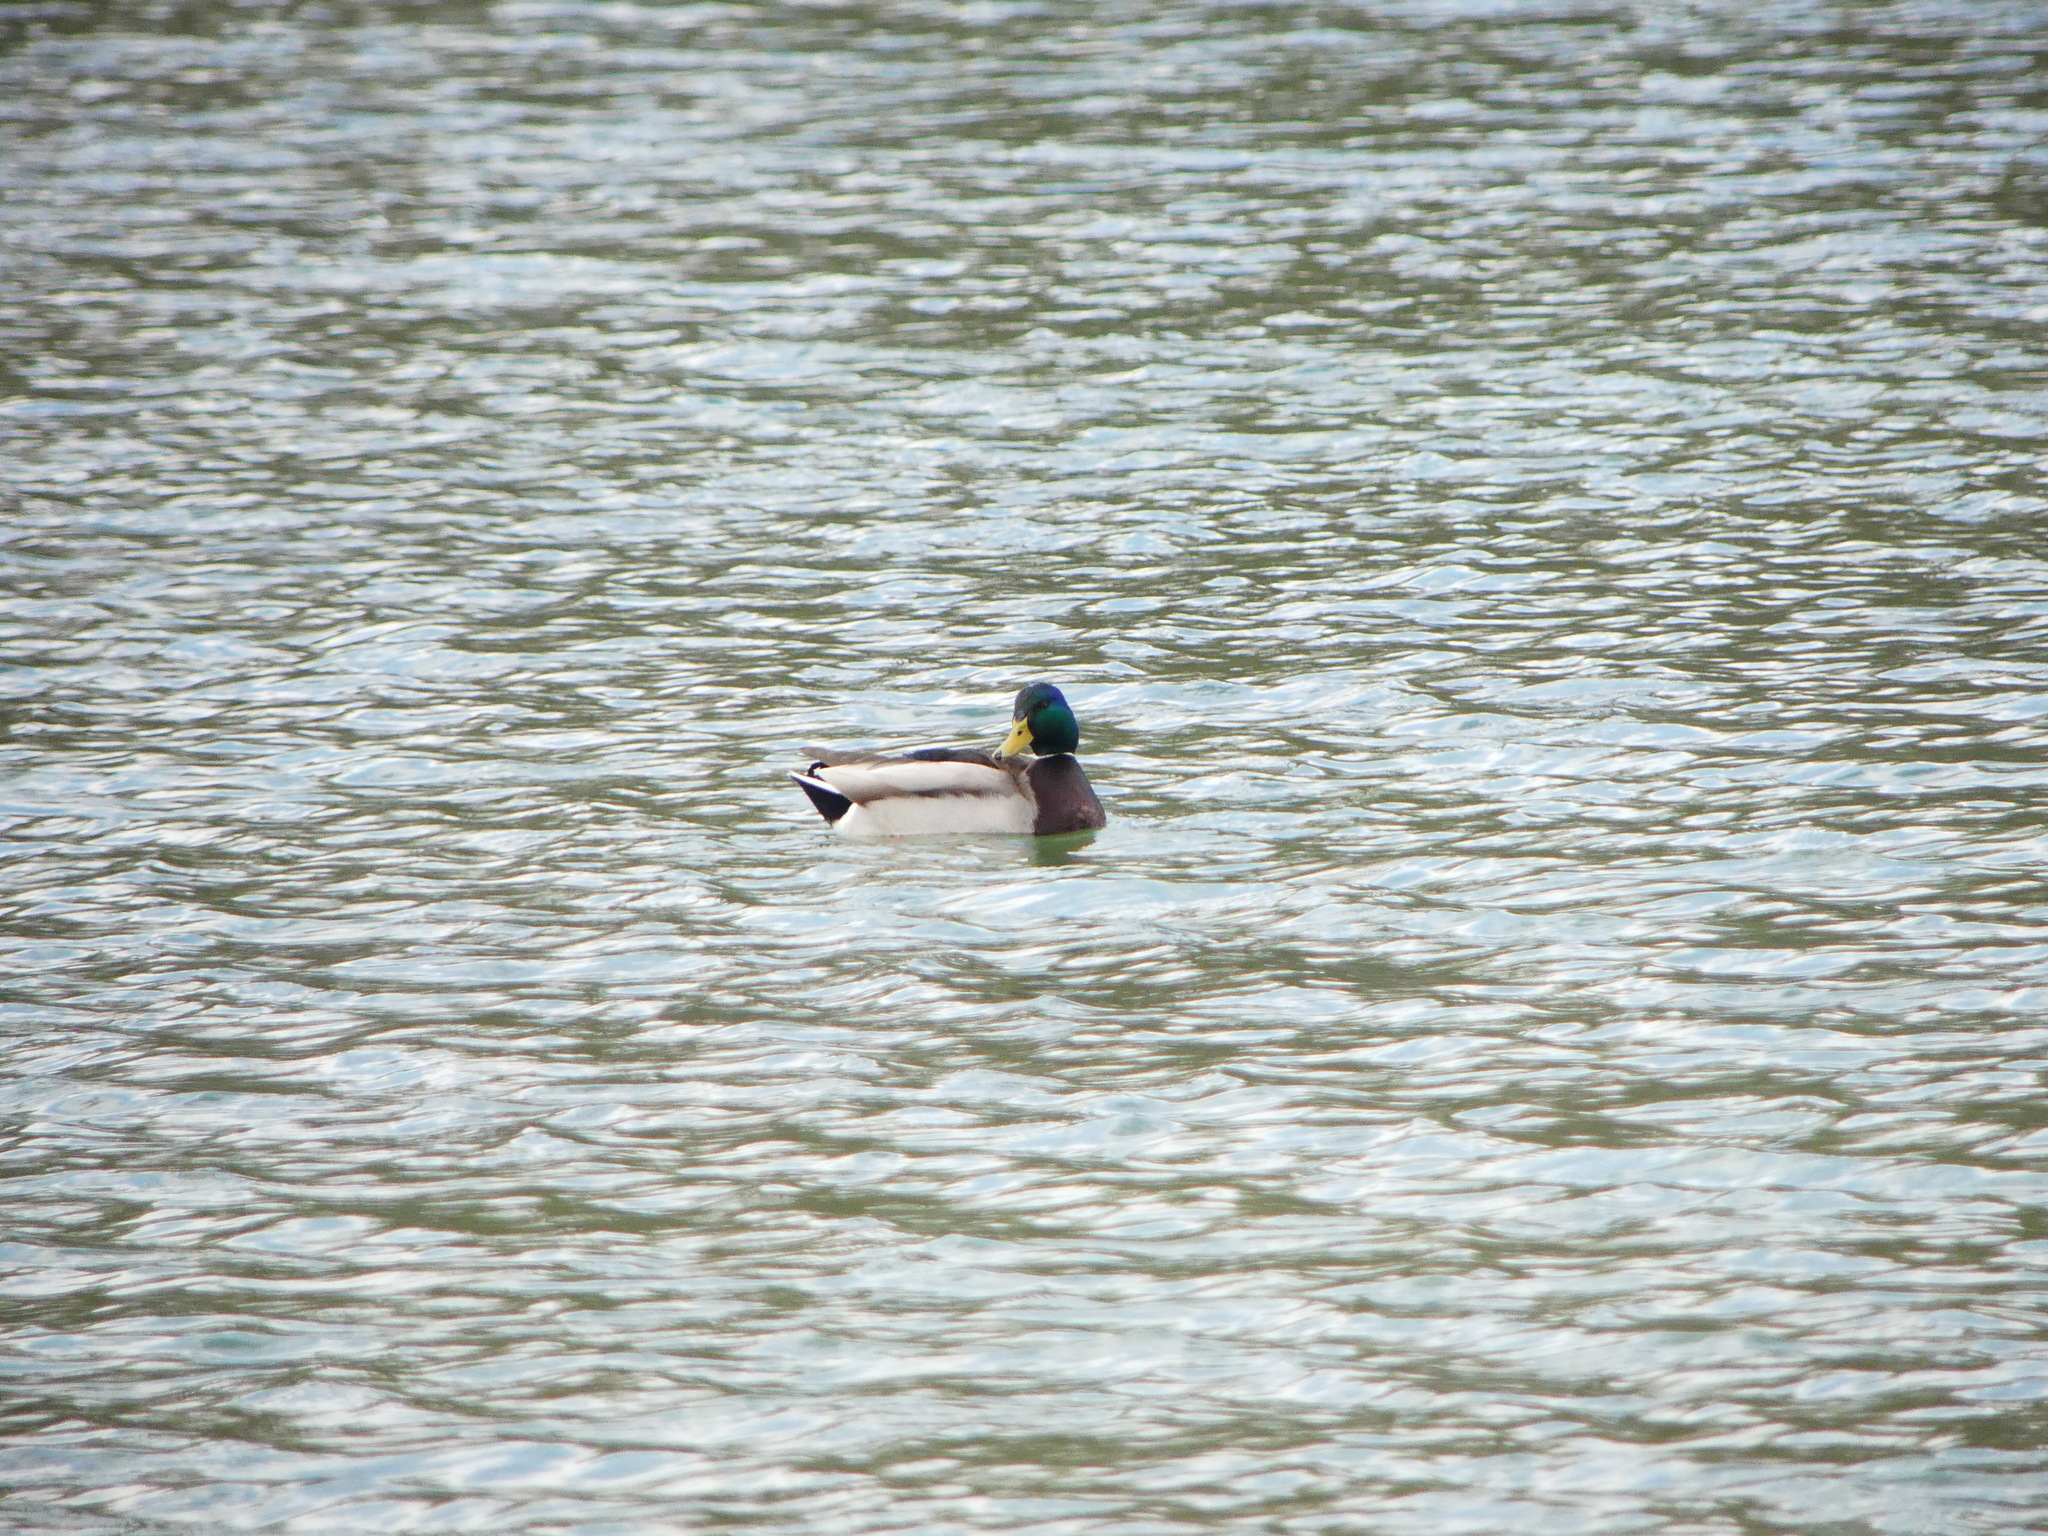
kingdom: Animalia
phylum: Chordata
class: Aves
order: Anseriformes
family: Anatidae
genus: Anas
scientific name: Anas platyrhynchos
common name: Mallard
